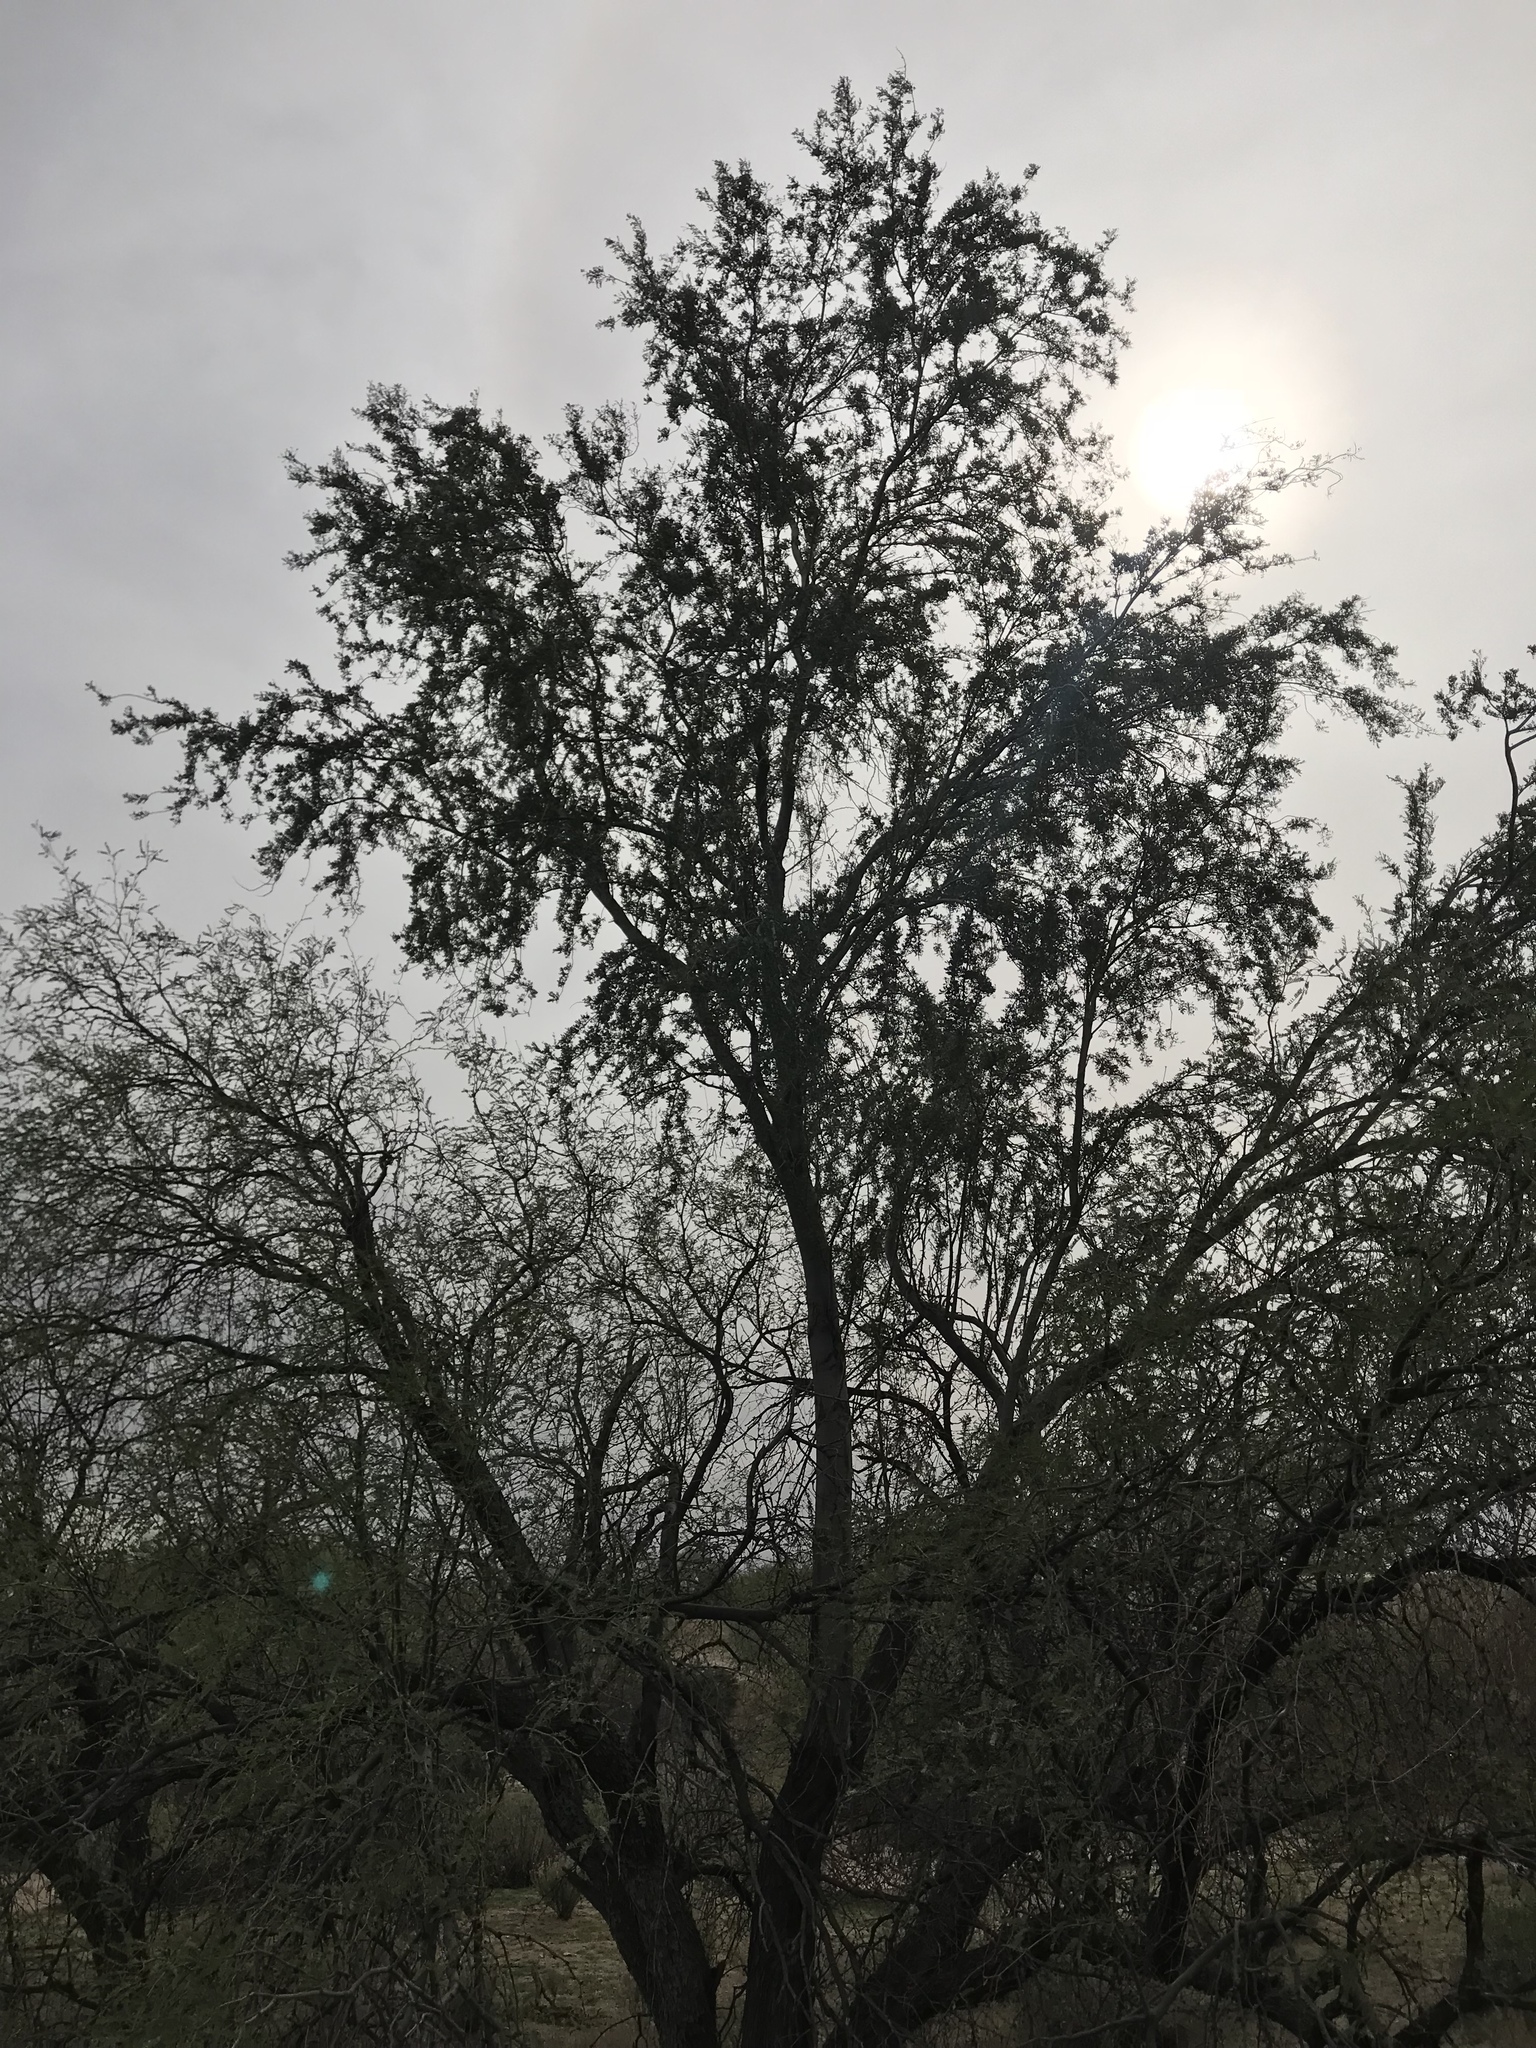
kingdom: Plantae
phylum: Tracheophyta
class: Magnoliopsida
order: Fabales
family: Fabaceae
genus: Olneya
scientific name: Olneya tesota
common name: Desert ironwood
